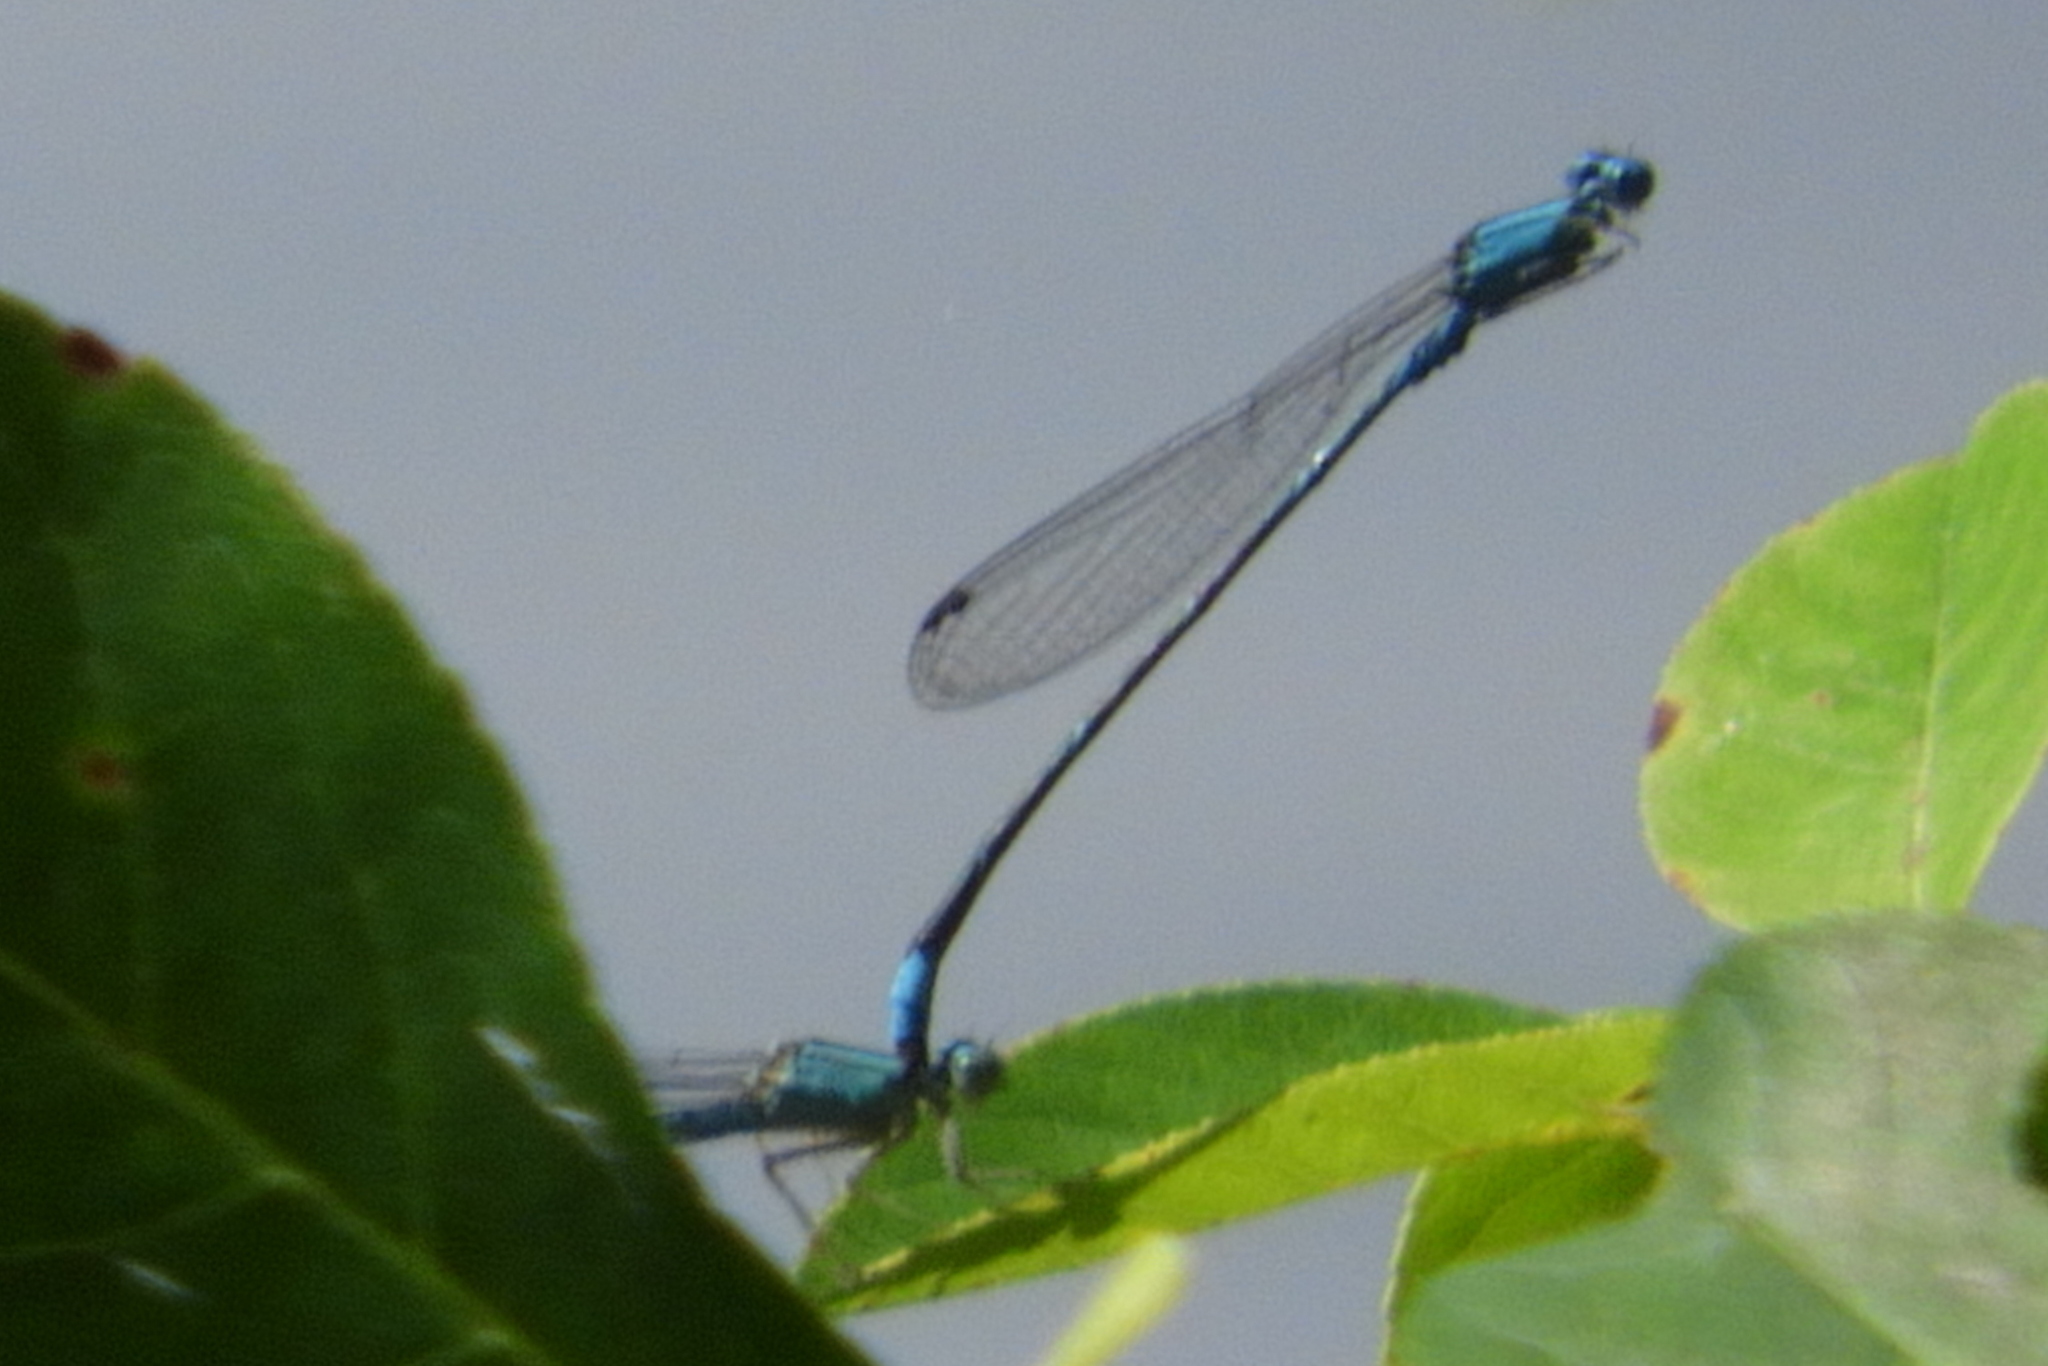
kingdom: Animalia
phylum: Arthropoda
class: Insecta
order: Odonata
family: Coenagrionidae
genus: Enallagma
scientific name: Enallagma traviatum
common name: Slender bluet
